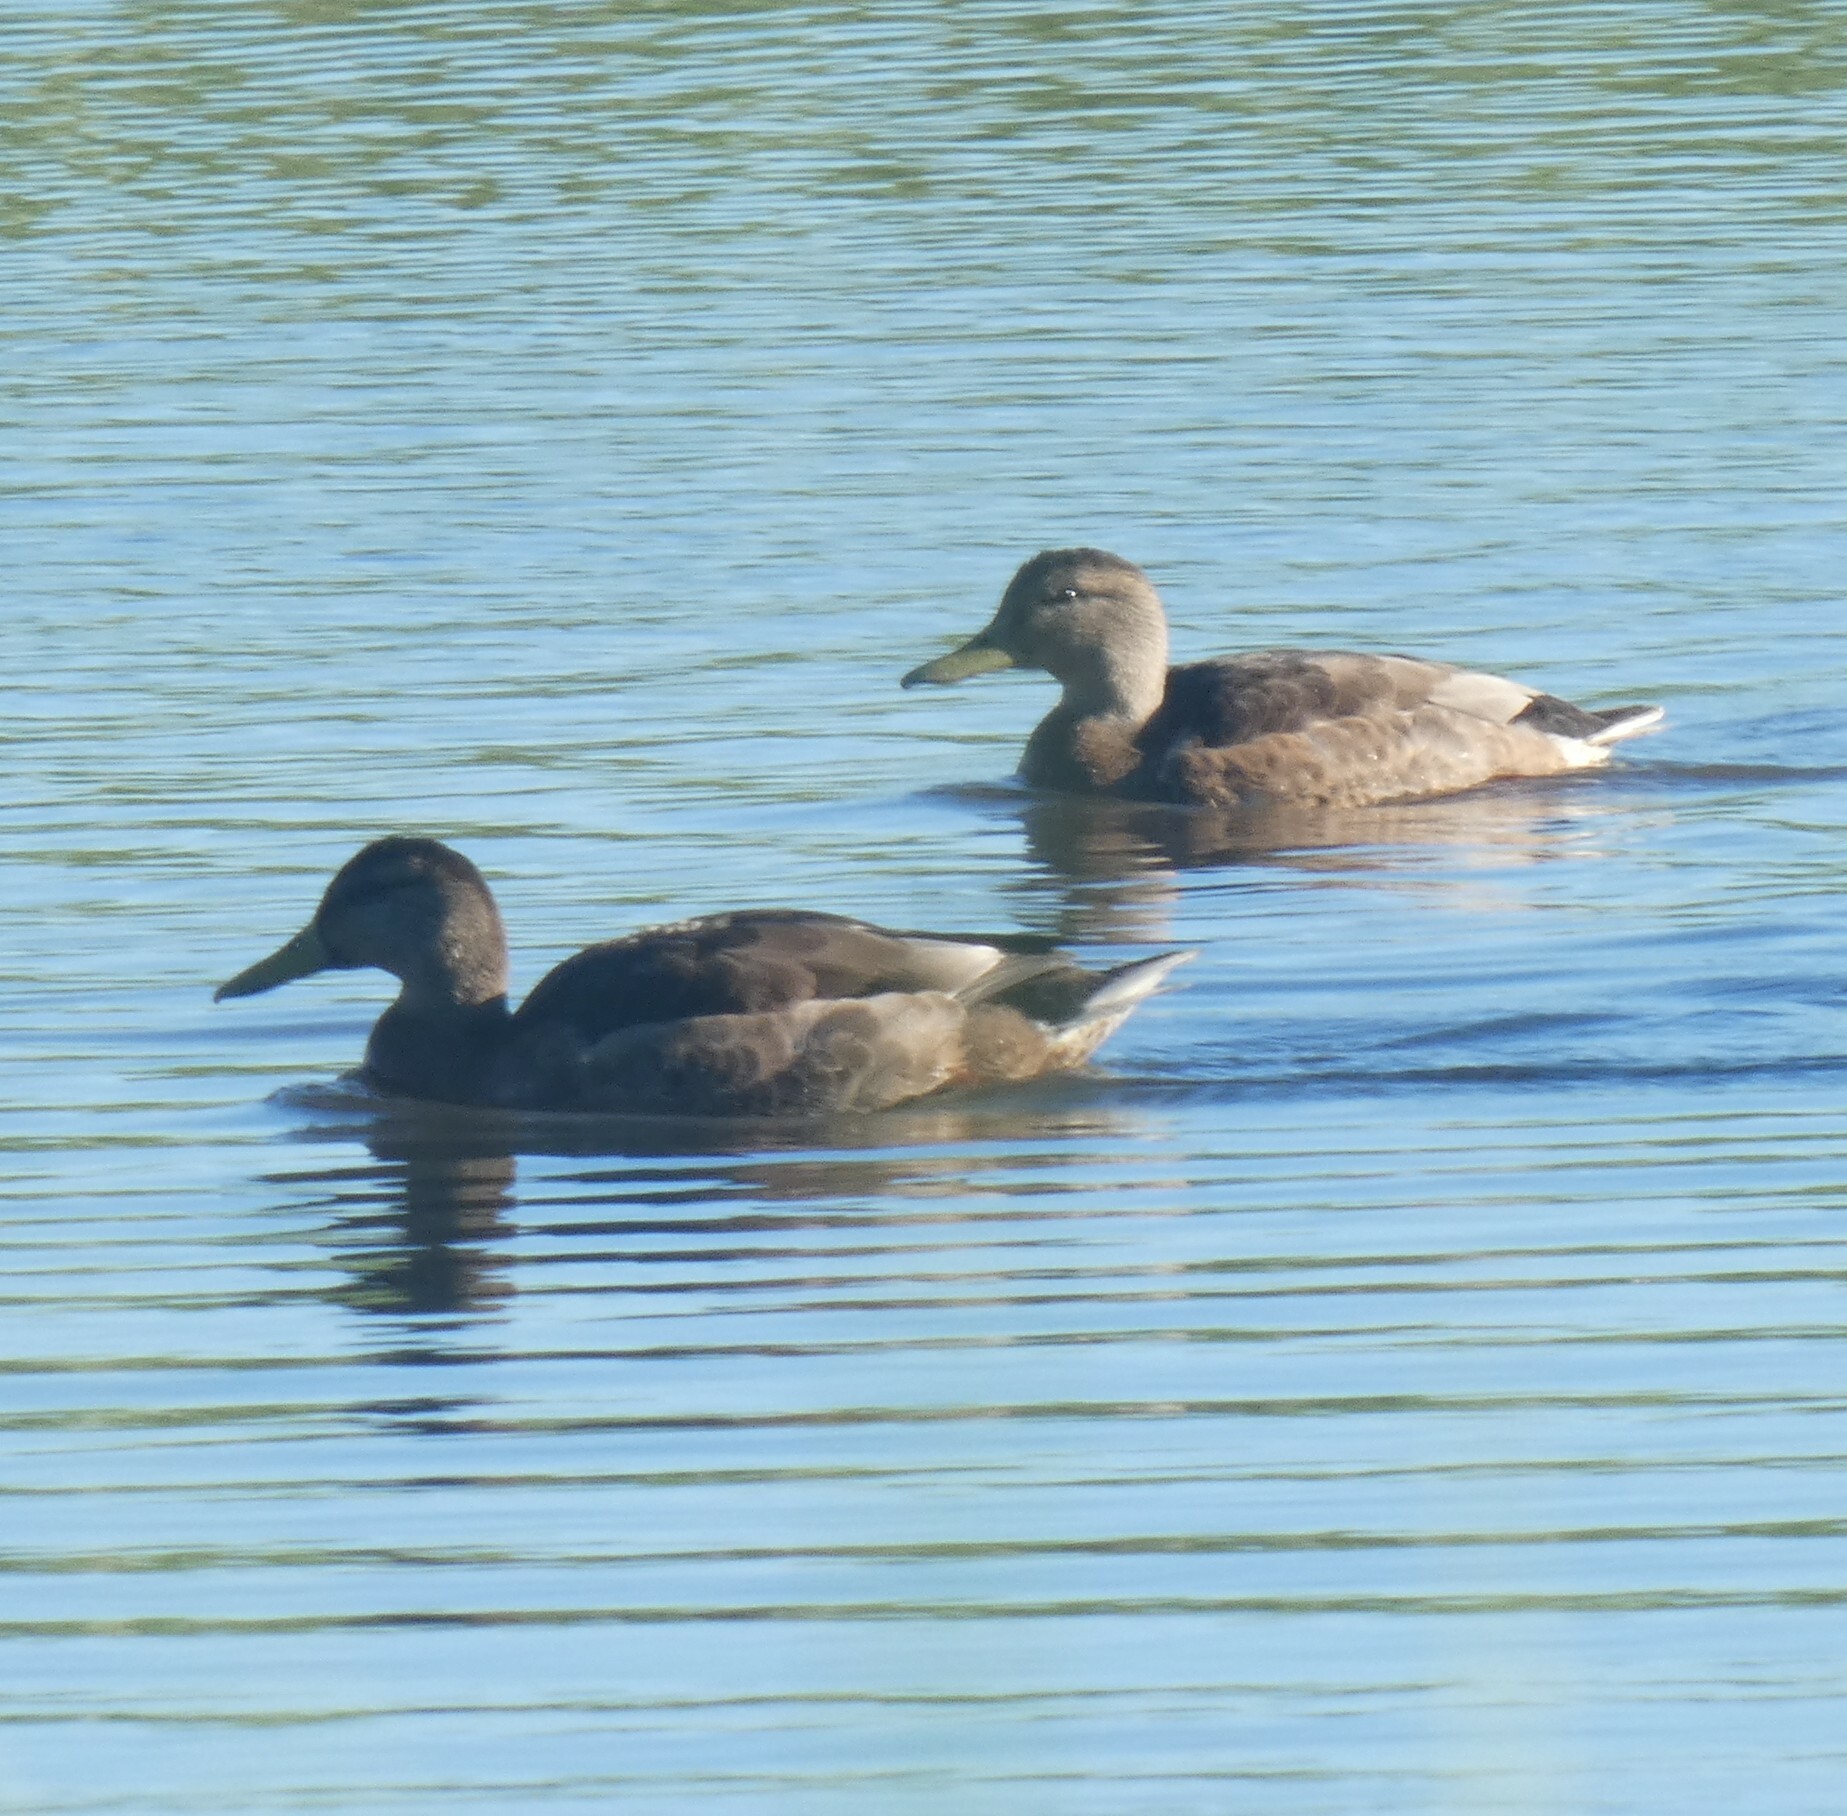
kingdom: Animalia
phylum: Chordata
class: Aves
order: Anseriformes
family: Anatidae
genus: Anas
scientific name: Anas platyrhynchos
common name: Mallard
